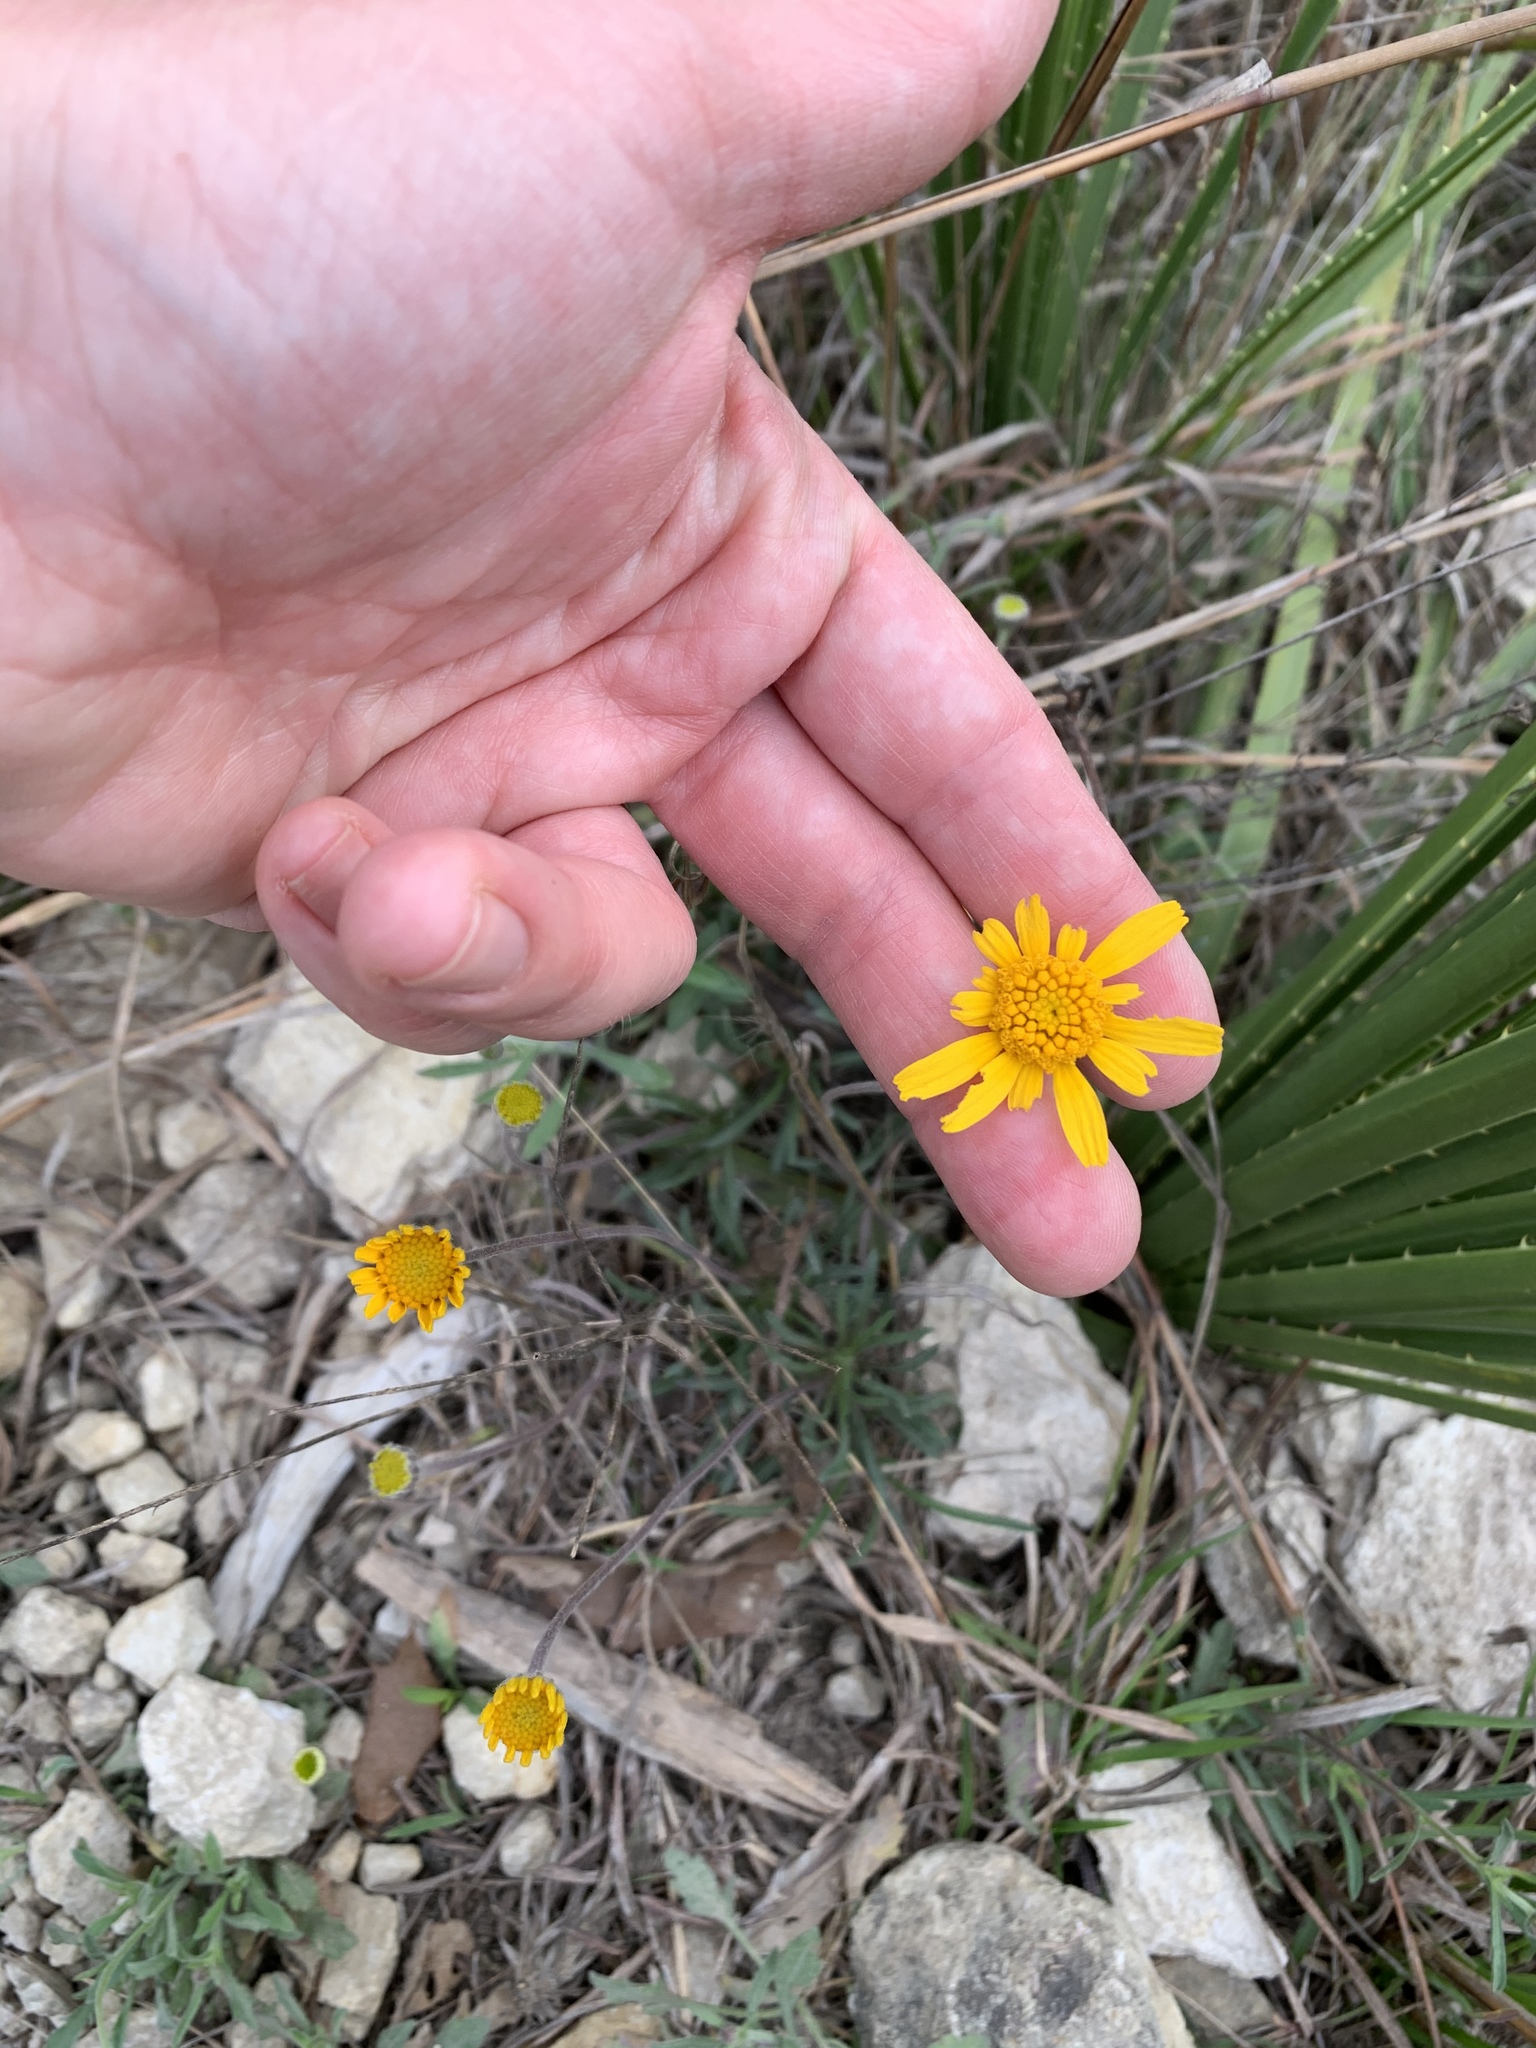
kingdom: Plantae
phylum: Tracheophyta
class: Magnoliopsida
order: Asterales
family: Asteraceae
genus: Tetraneuris
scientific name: Tetraneuris scaposa
